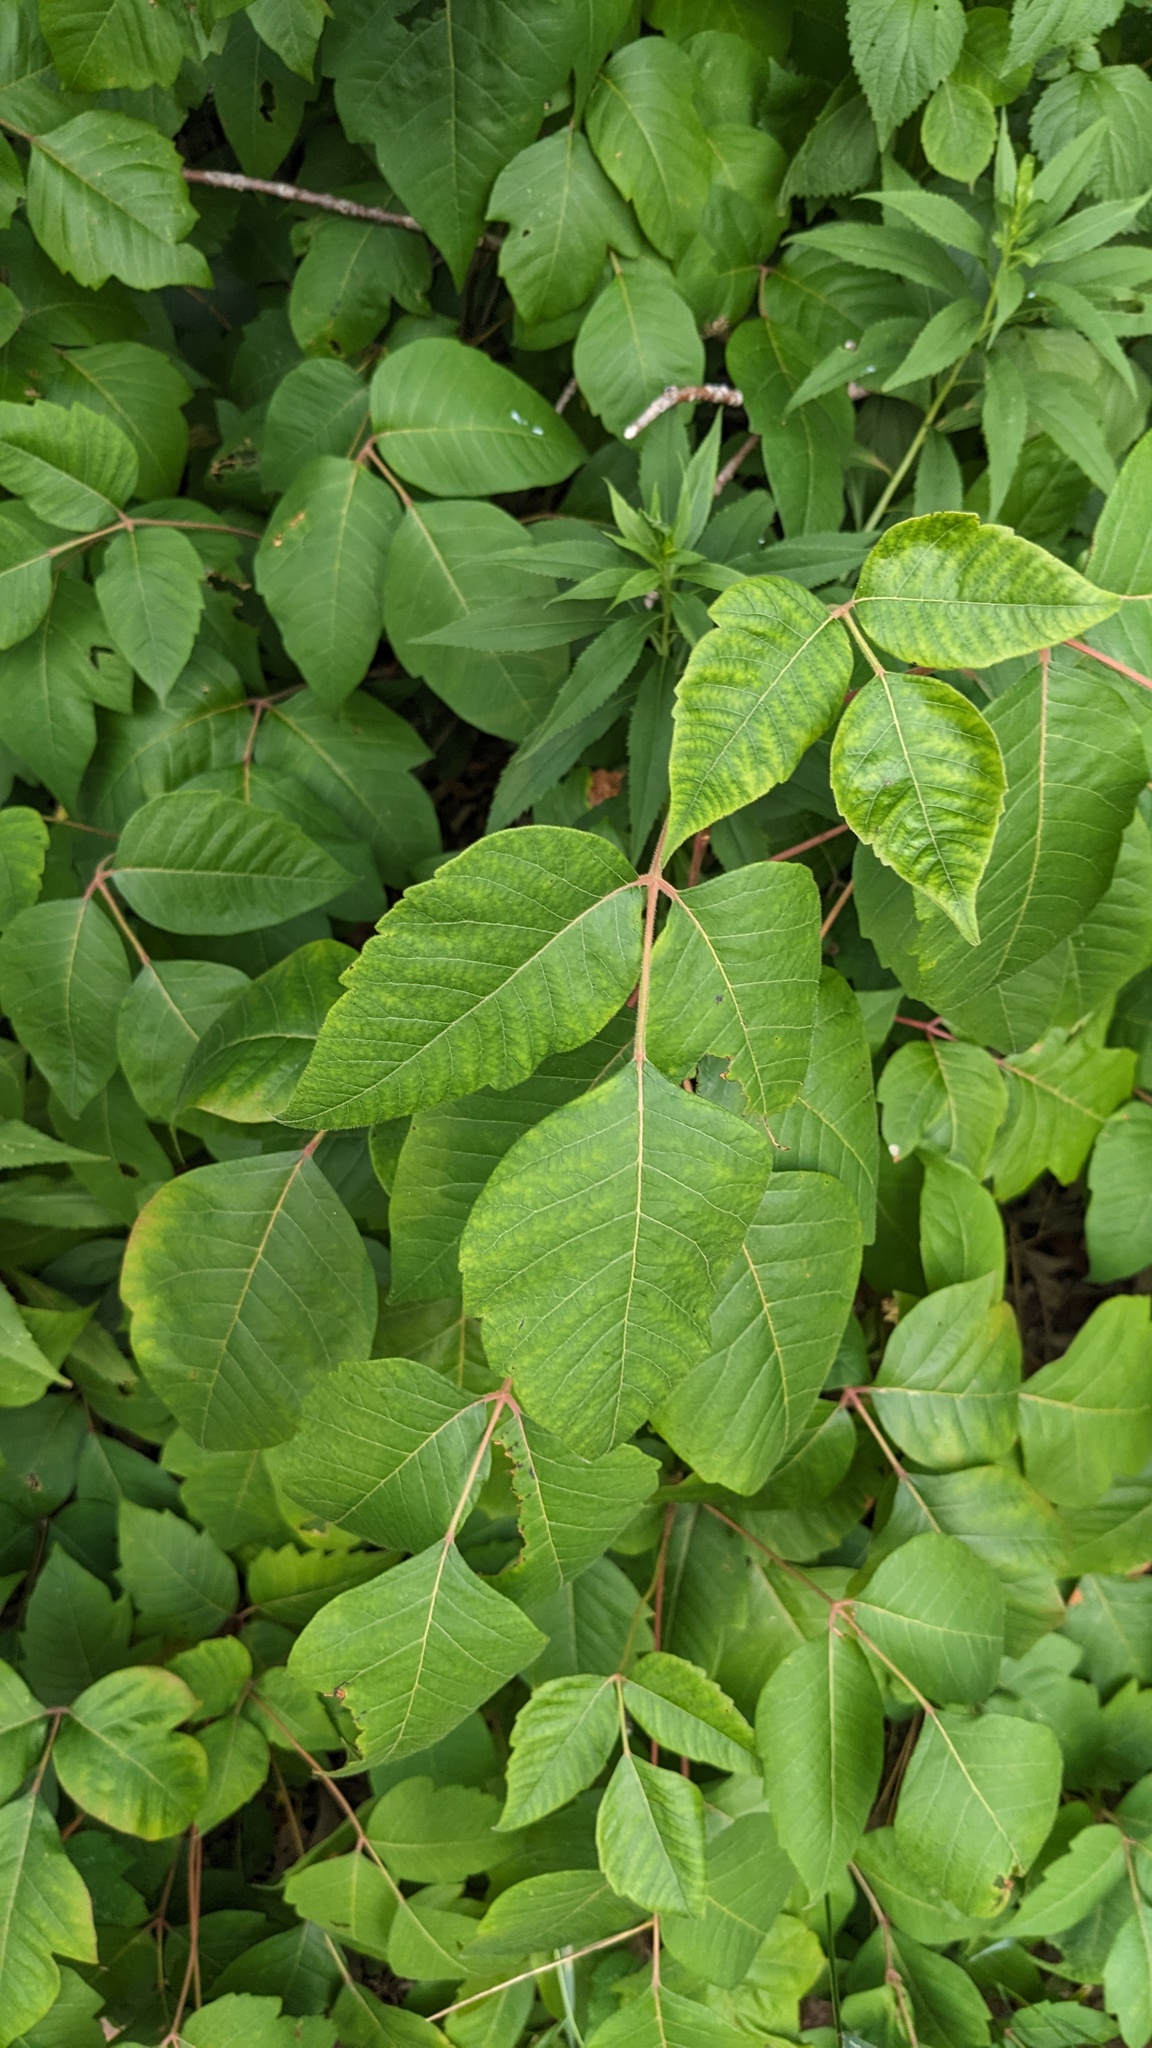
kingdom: Plantae
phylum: Tracheophyta
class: Magnoliopsida
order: Sapindales
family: Anacardiaceae
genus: Toxicodendron
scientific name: Toxicodendron radicans
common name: Poison ivy
